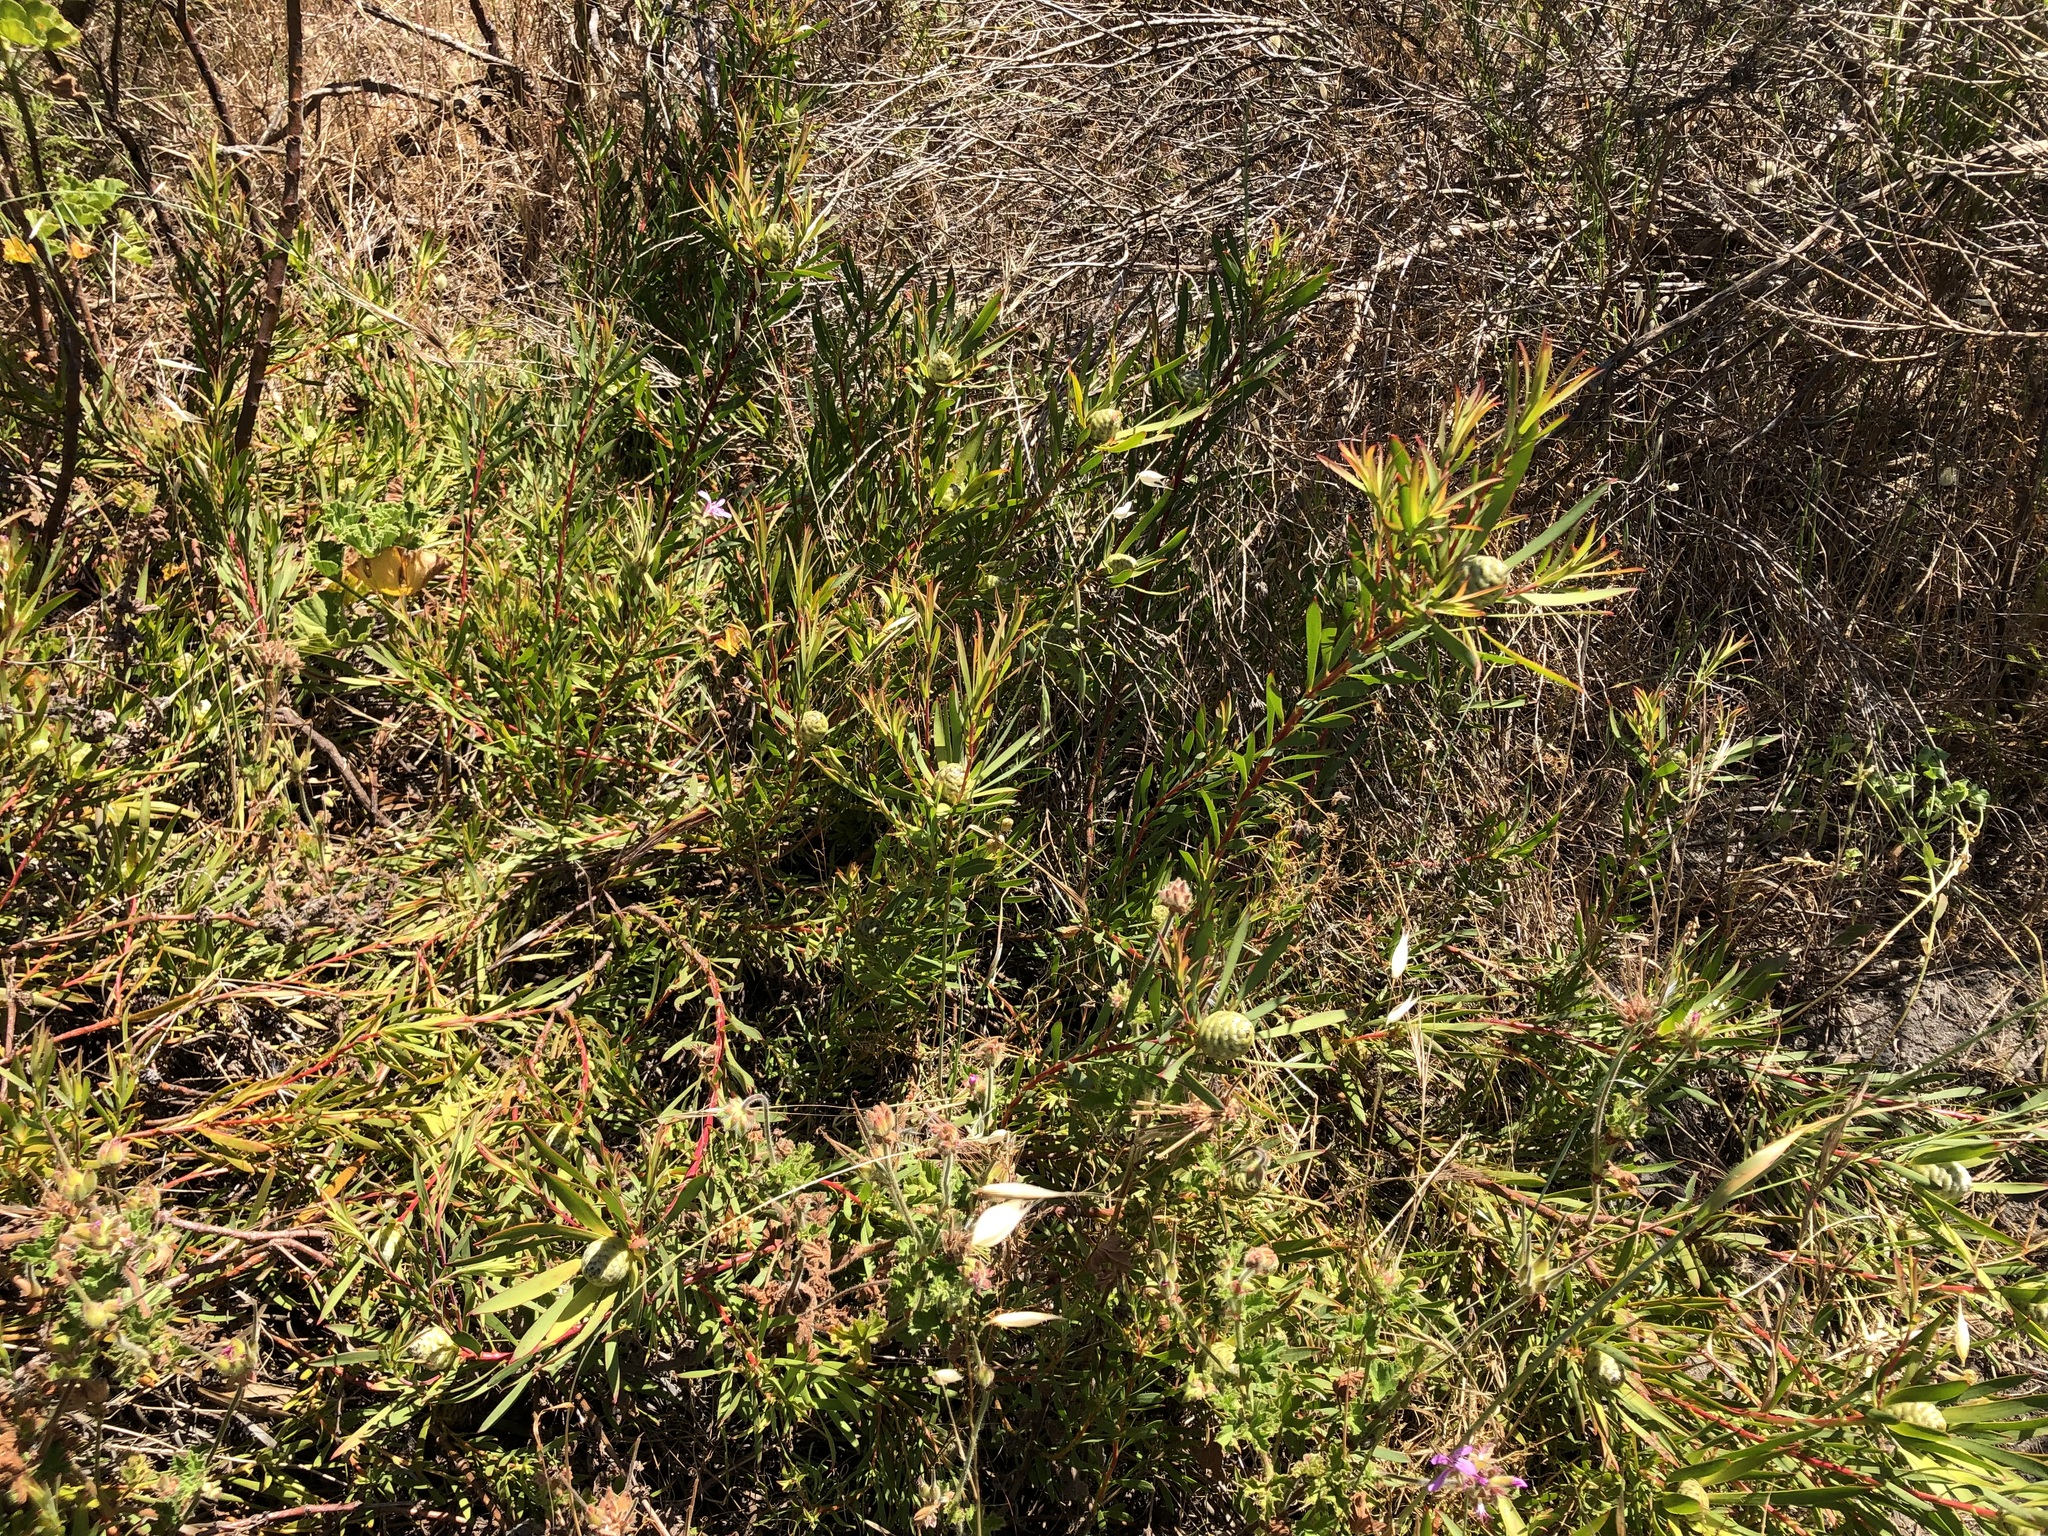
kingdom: Plantae
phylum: Tracheophyta
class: Magnoliopsida
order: Proteales
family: Proteaceae
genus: Leucadendron
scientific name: Leucadendron salignum
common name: Common sunshine conebush
